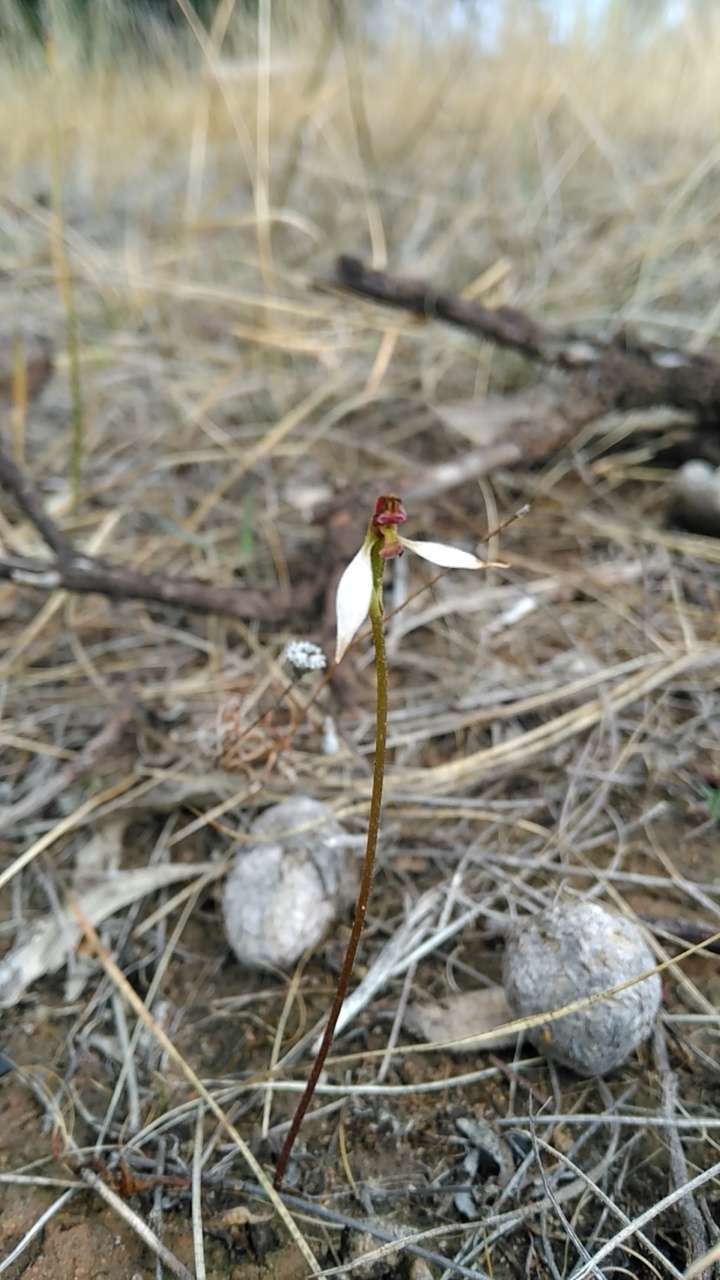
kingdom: Plantae
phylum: Tracheophyta
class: Liliopsida
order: Asparagales
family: Orchidaceae
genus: Eriochilus
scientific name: Eriochilus cucullatus
